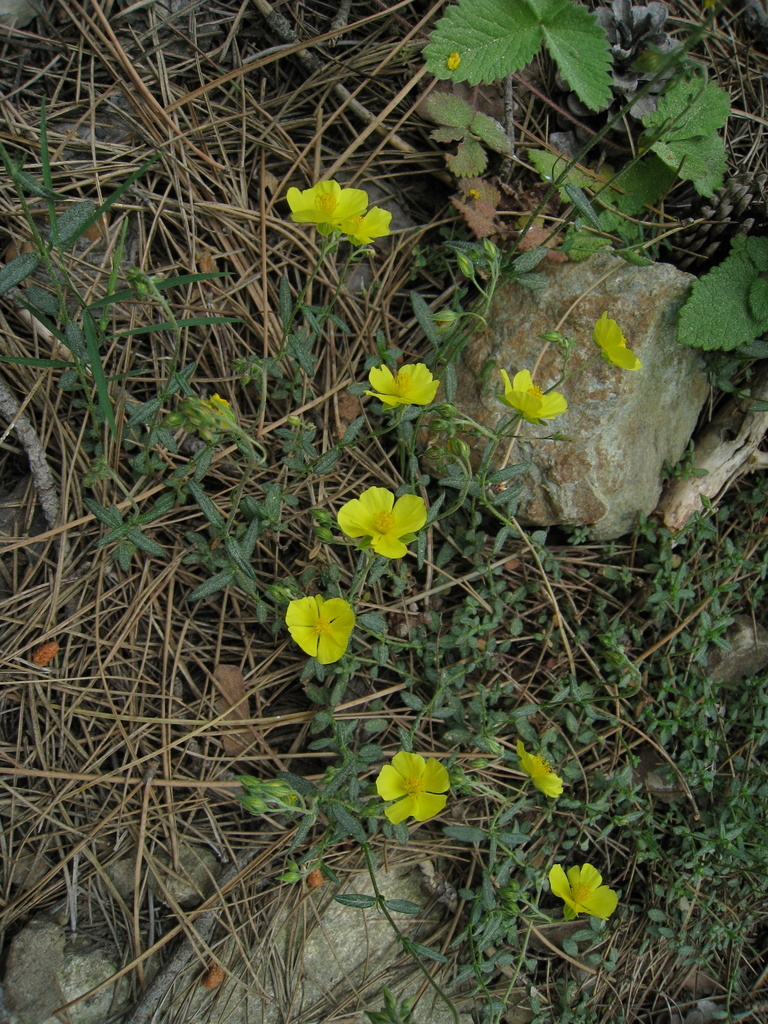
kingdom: Plantae
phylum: Tracheophyta
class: Magnoliopsida
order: Malvales
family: Cistaceae
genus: Helianthemum
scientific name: Helianthemum nummularium
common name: Common rock-rose
